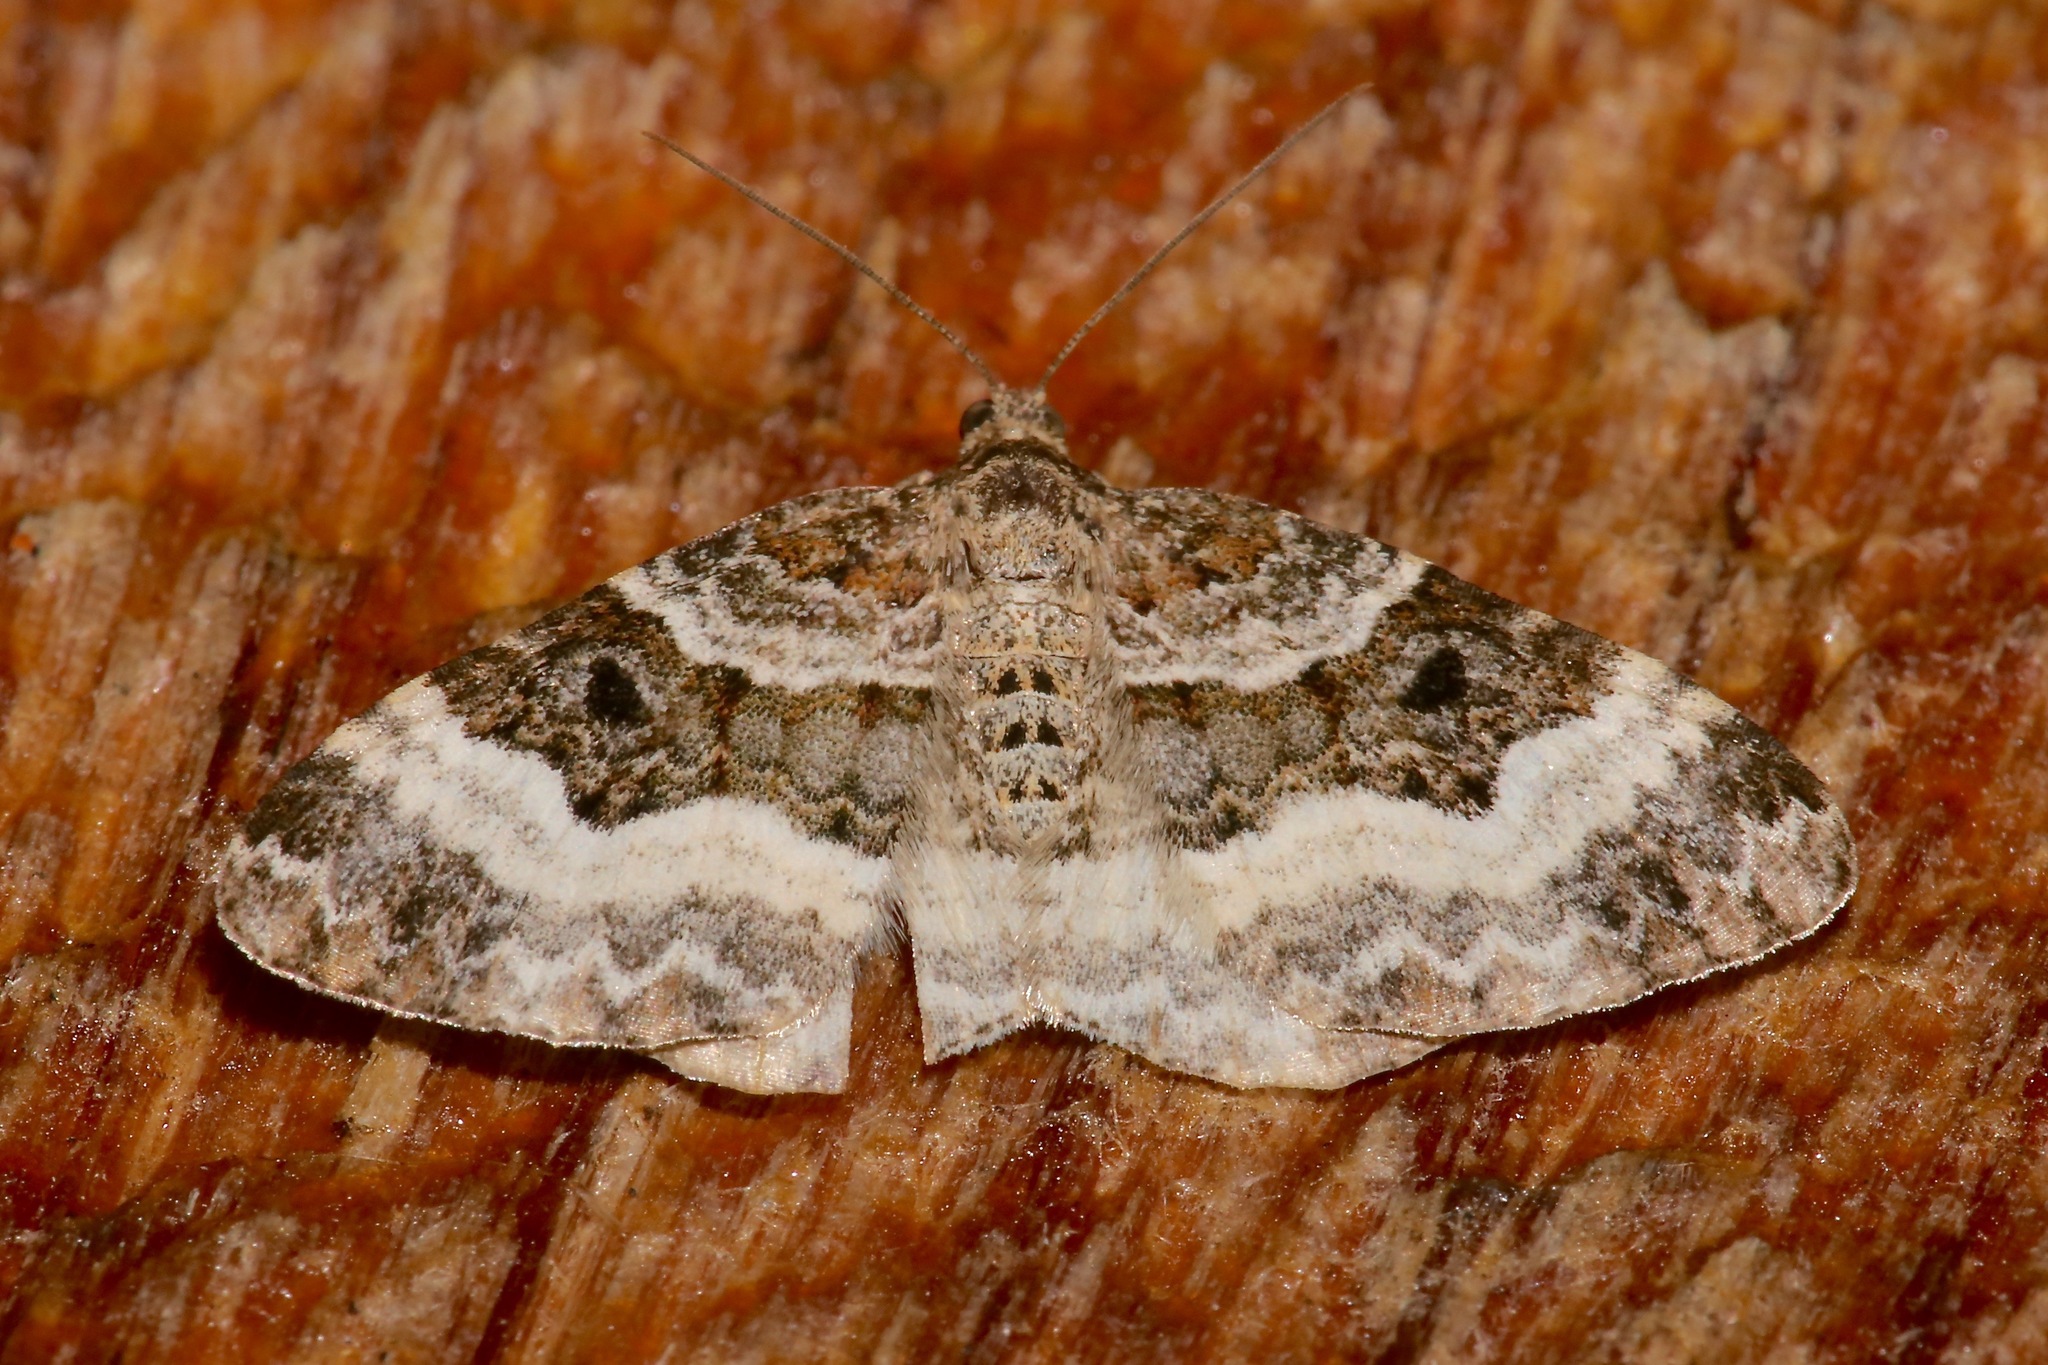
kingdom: Animalia
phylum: Arthropoda
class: Insecta
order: Lepidoptera
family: Geometridae
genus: Epirrhoe
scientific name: Epirrhoe alternata
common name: Common carpet
